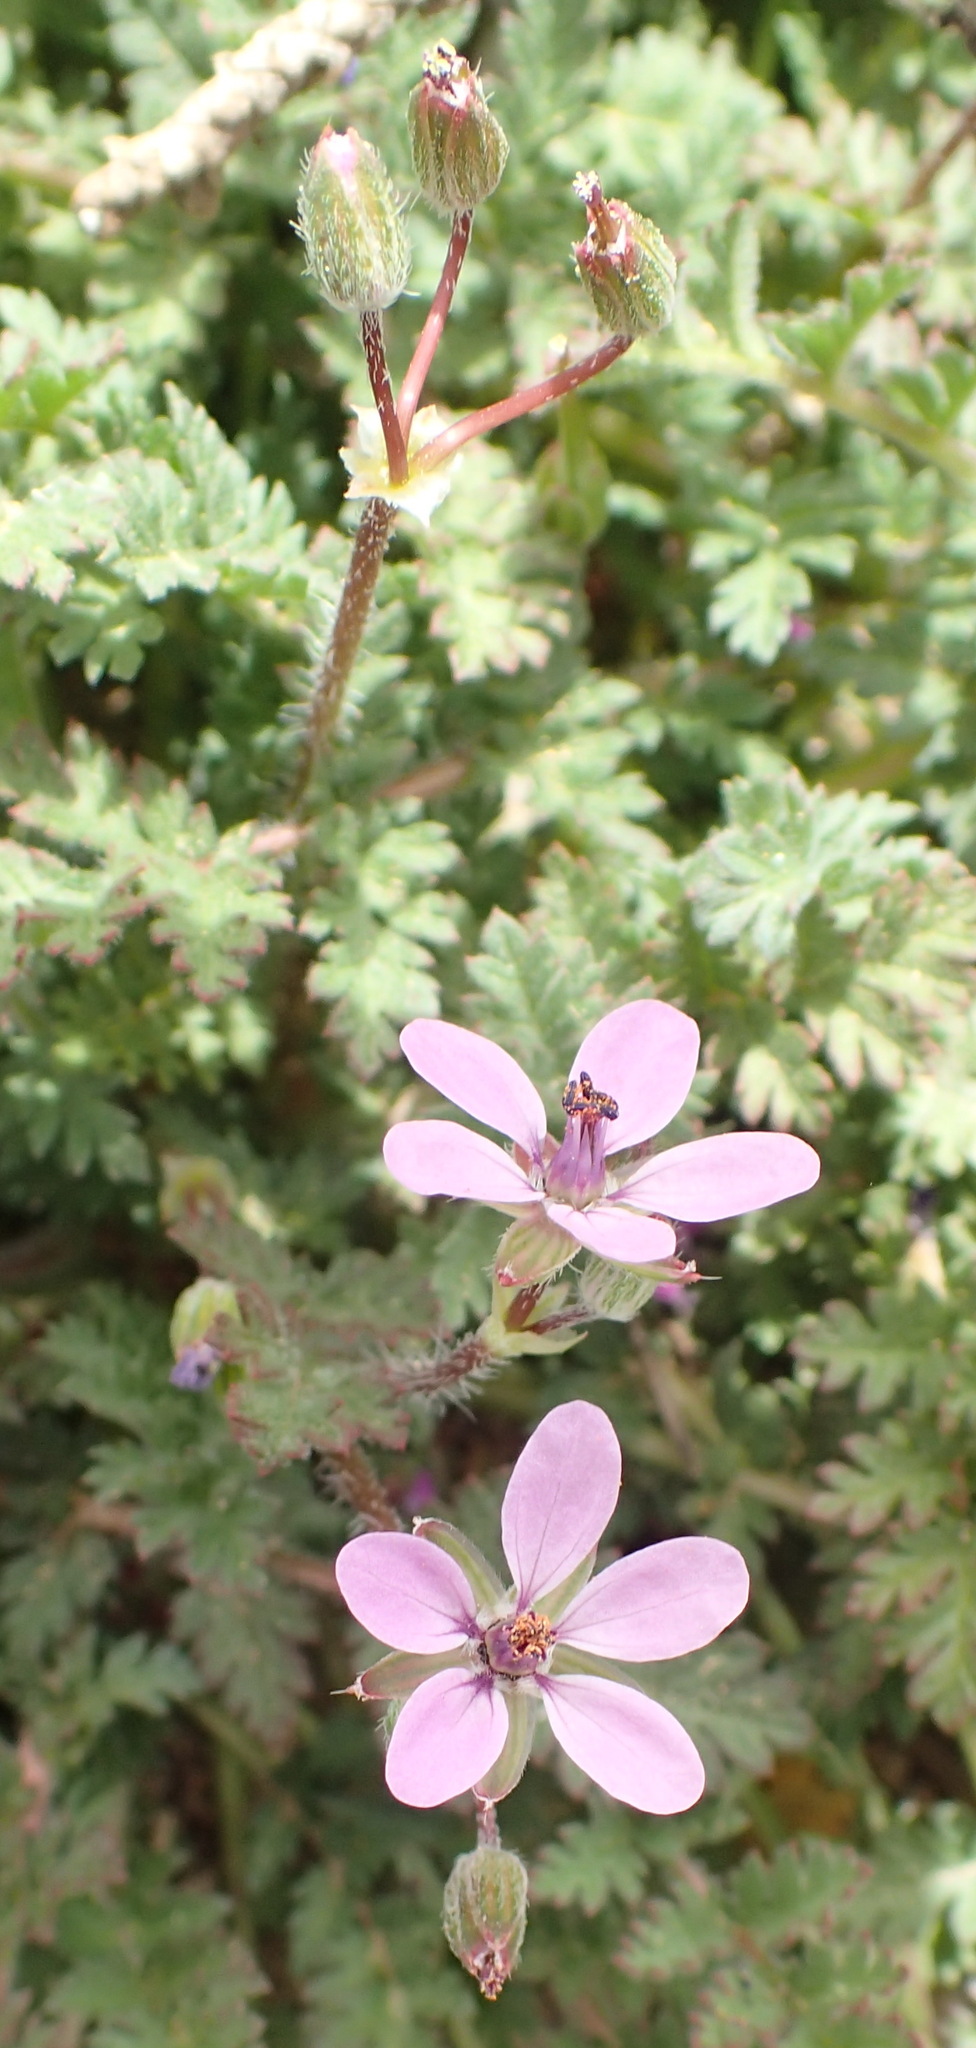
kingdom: Plantae
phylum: Tracheophyta
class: Magnoliopsida
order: Geraniales
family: Geraniaceae
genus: Erodium
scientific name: Erodium cicutarium
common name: Common stork's-bill
